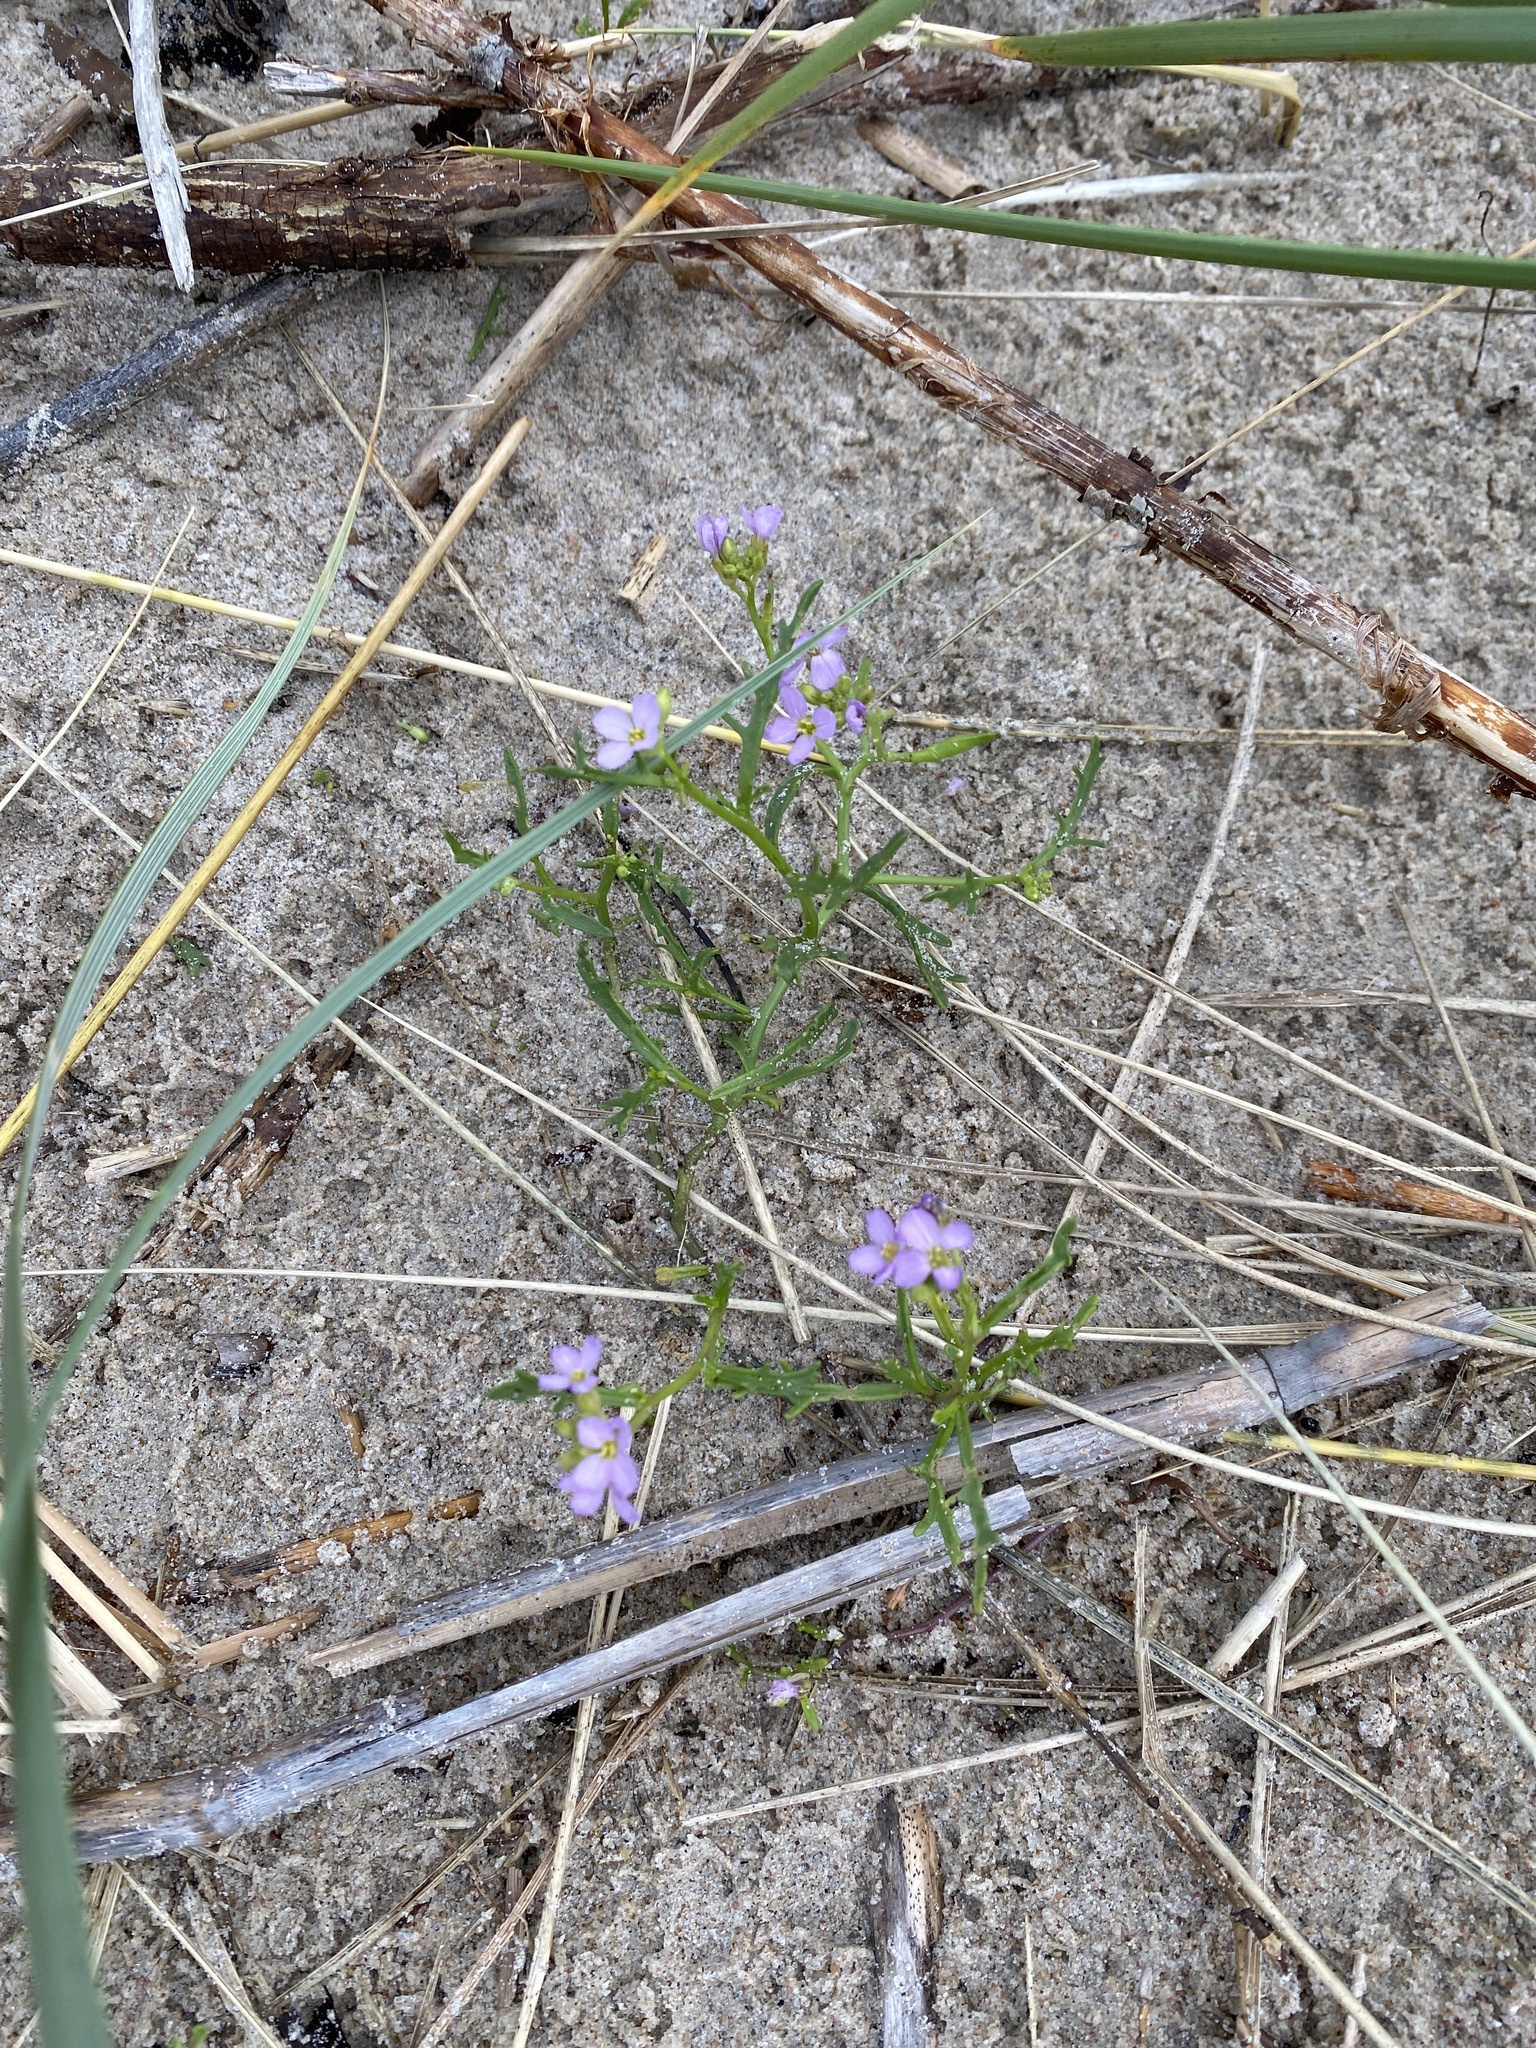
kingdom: Plantae
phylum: Tracheophyta
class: Magnoliopsida
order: Brassicales
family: Brassicaceae
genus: Cakile
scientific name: Cakile maritima
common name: Sea rocket
